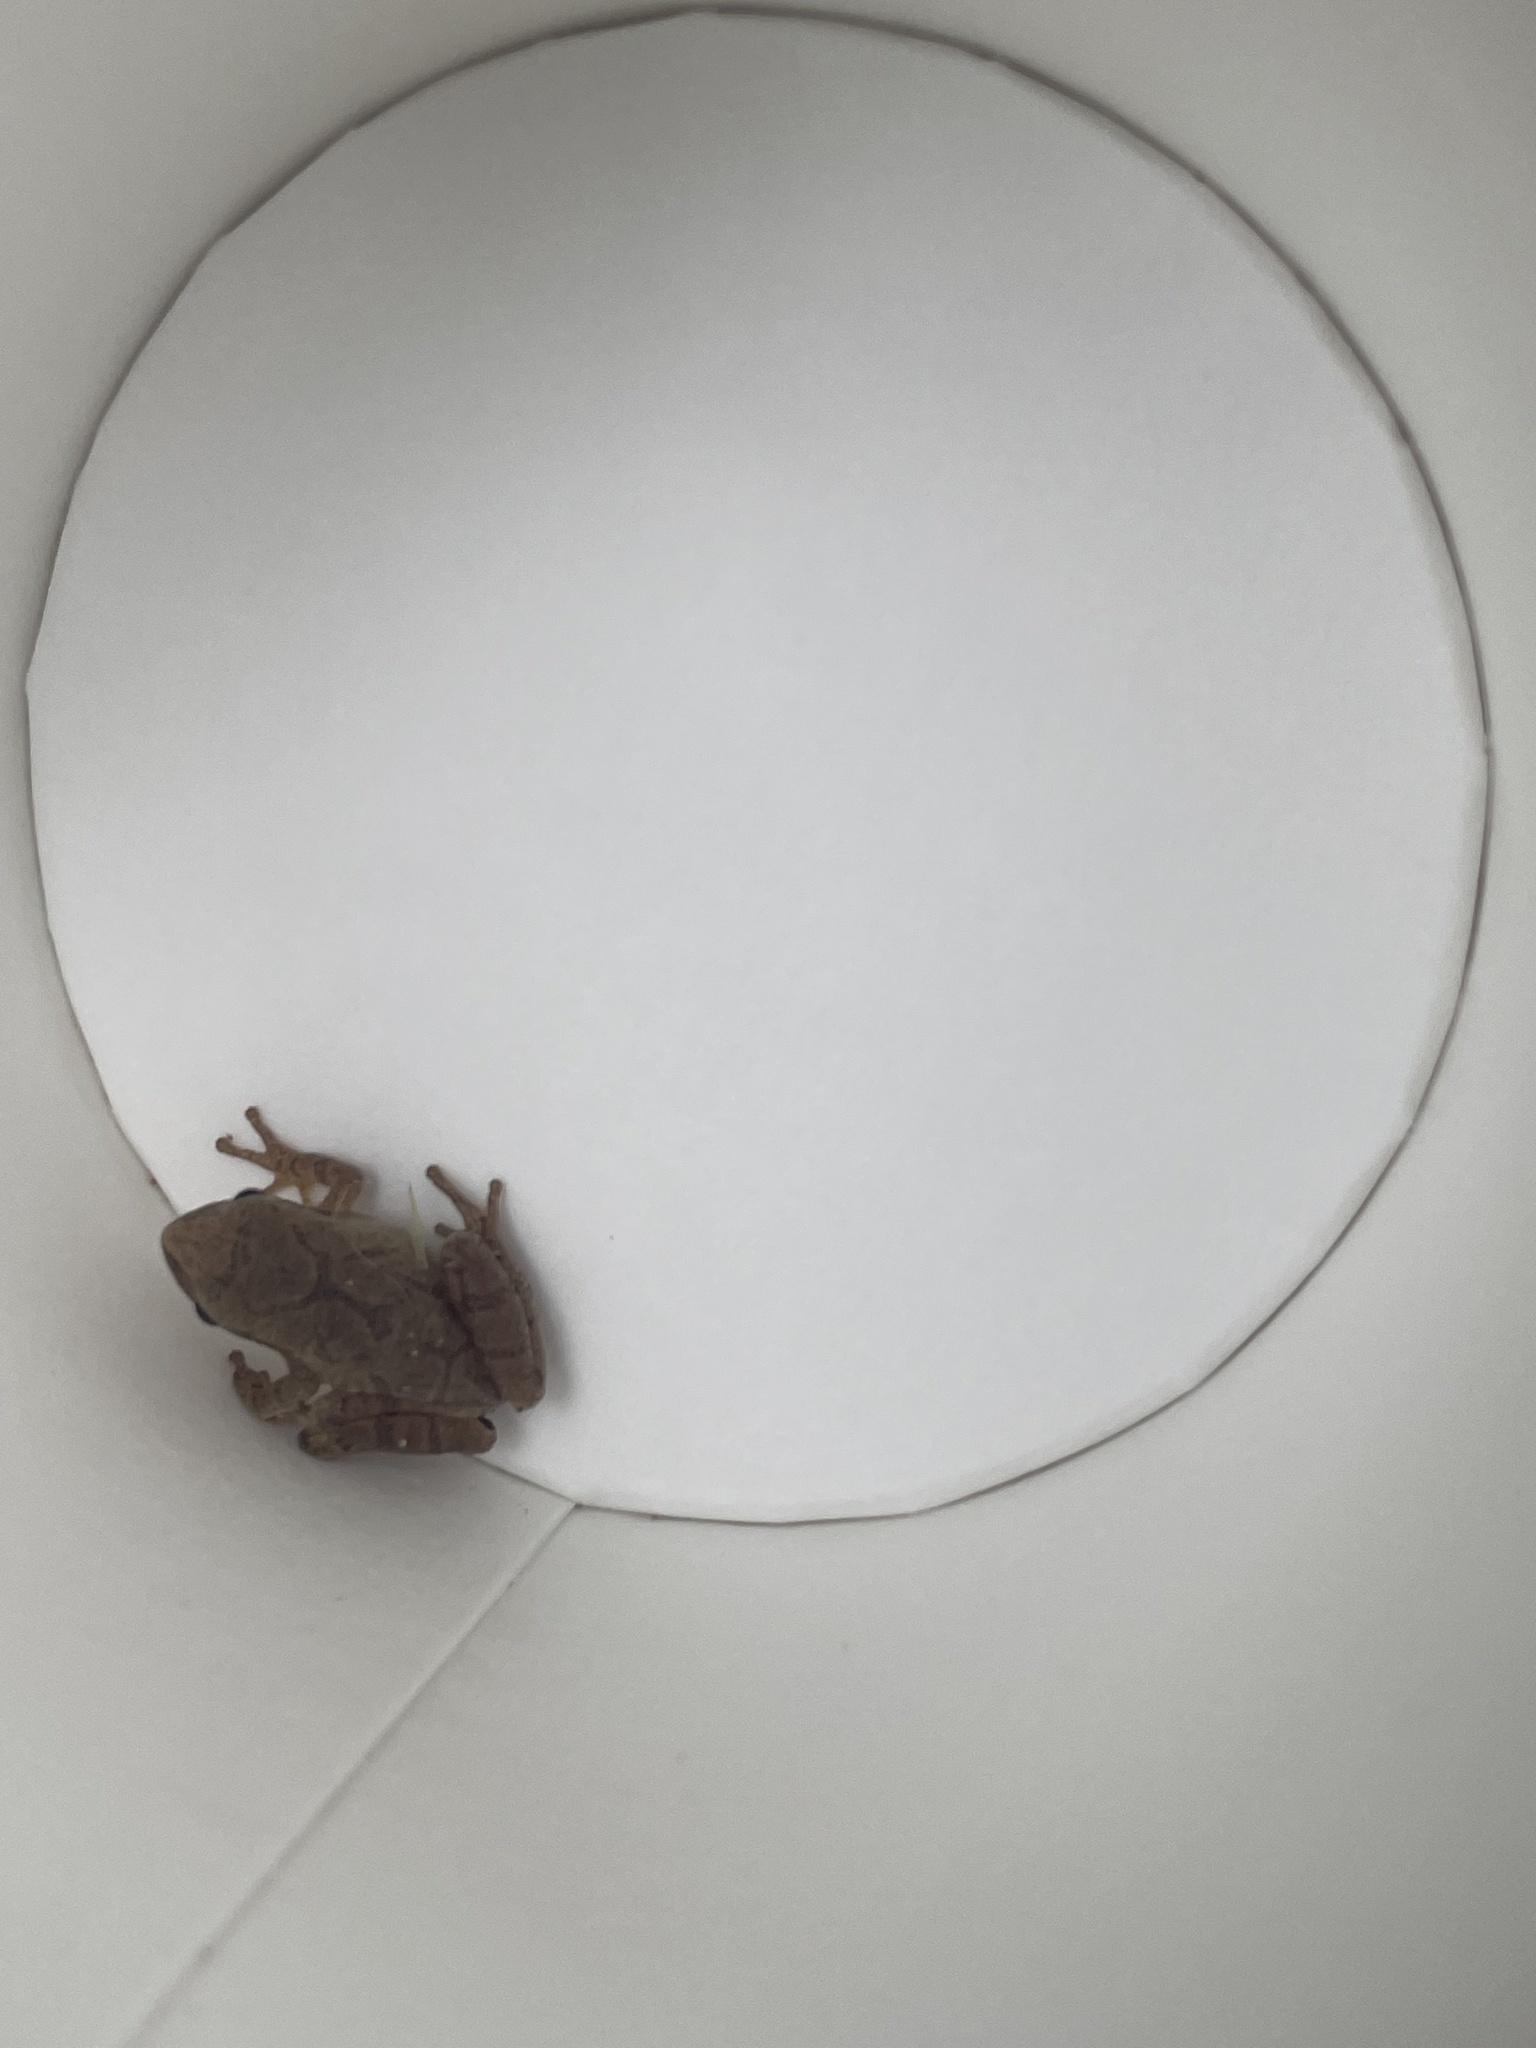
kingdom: Animalia
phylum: Chordata
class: Amphibia
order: Anura
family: Hylidae
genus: Pseudacris
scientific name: Pseudacris crucifer
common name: Spring peeper
